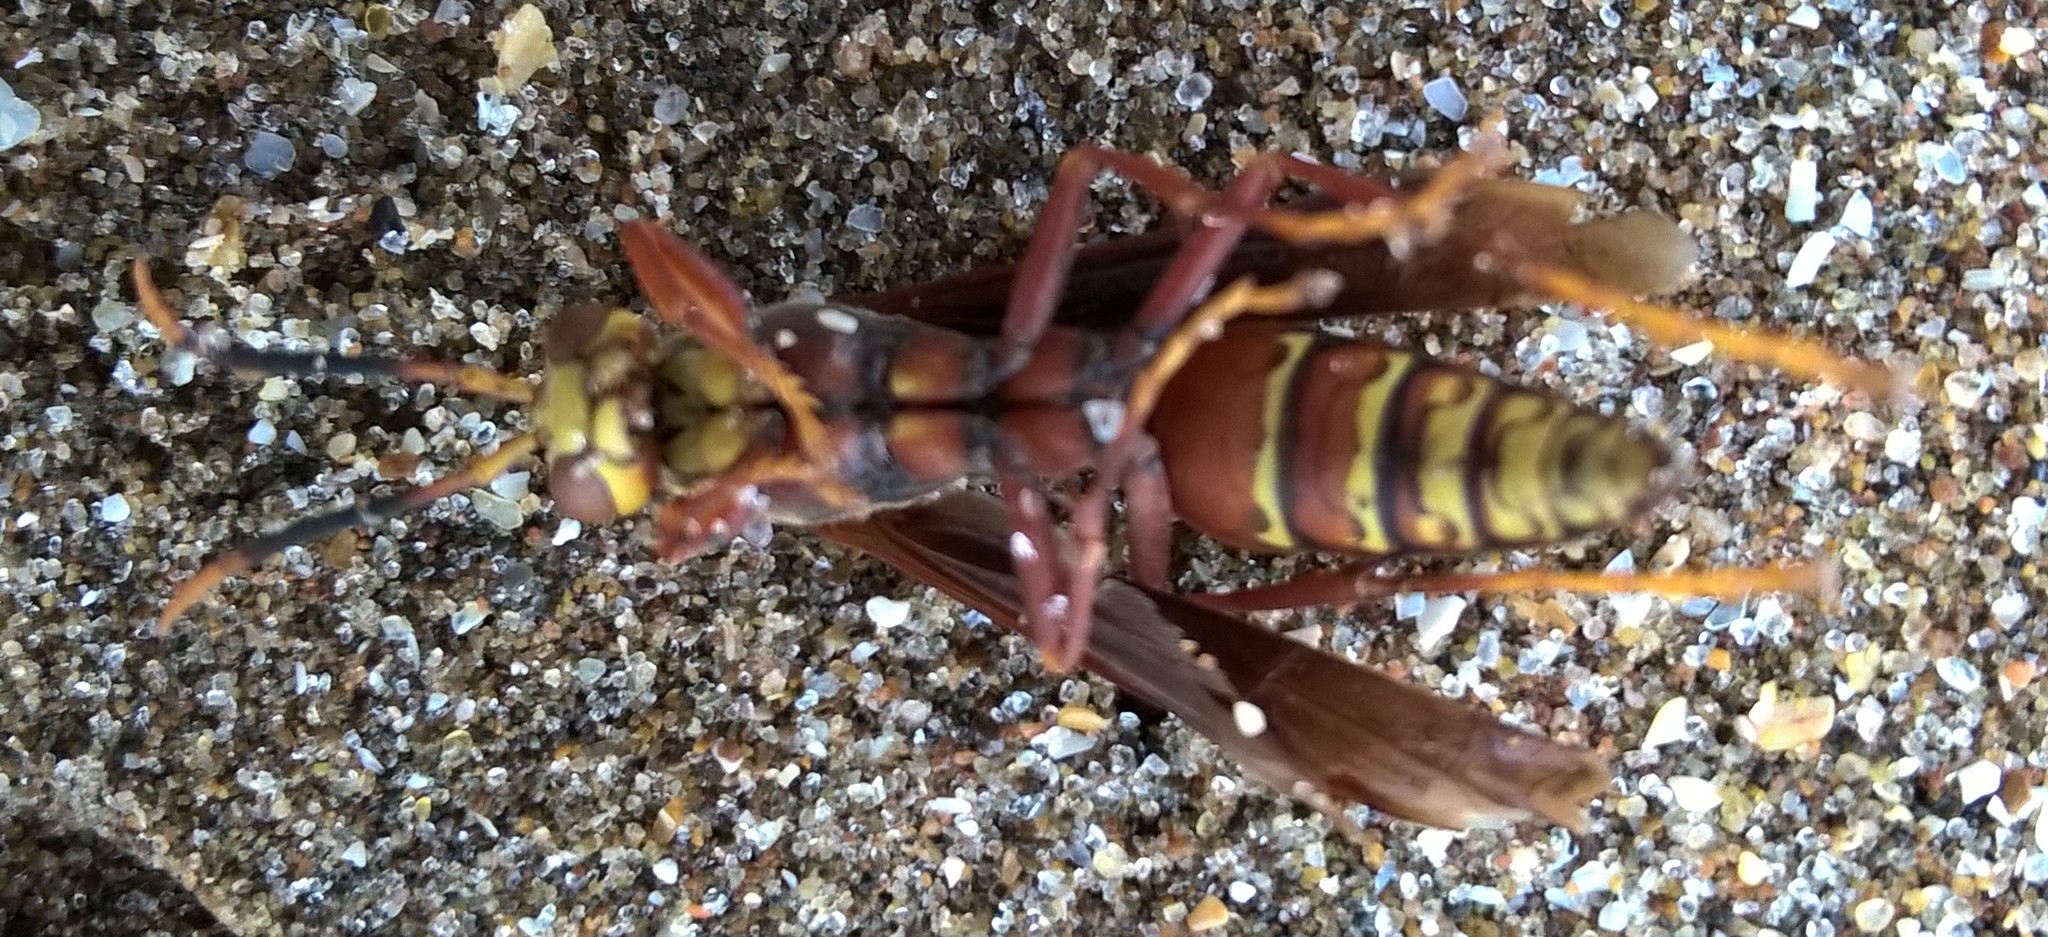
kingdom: Animalia
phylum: Arthropoda
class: Insecta
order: Hymenoptera
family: Pompilidae
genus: Aphanilopterus
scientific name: Aphanilopterus
